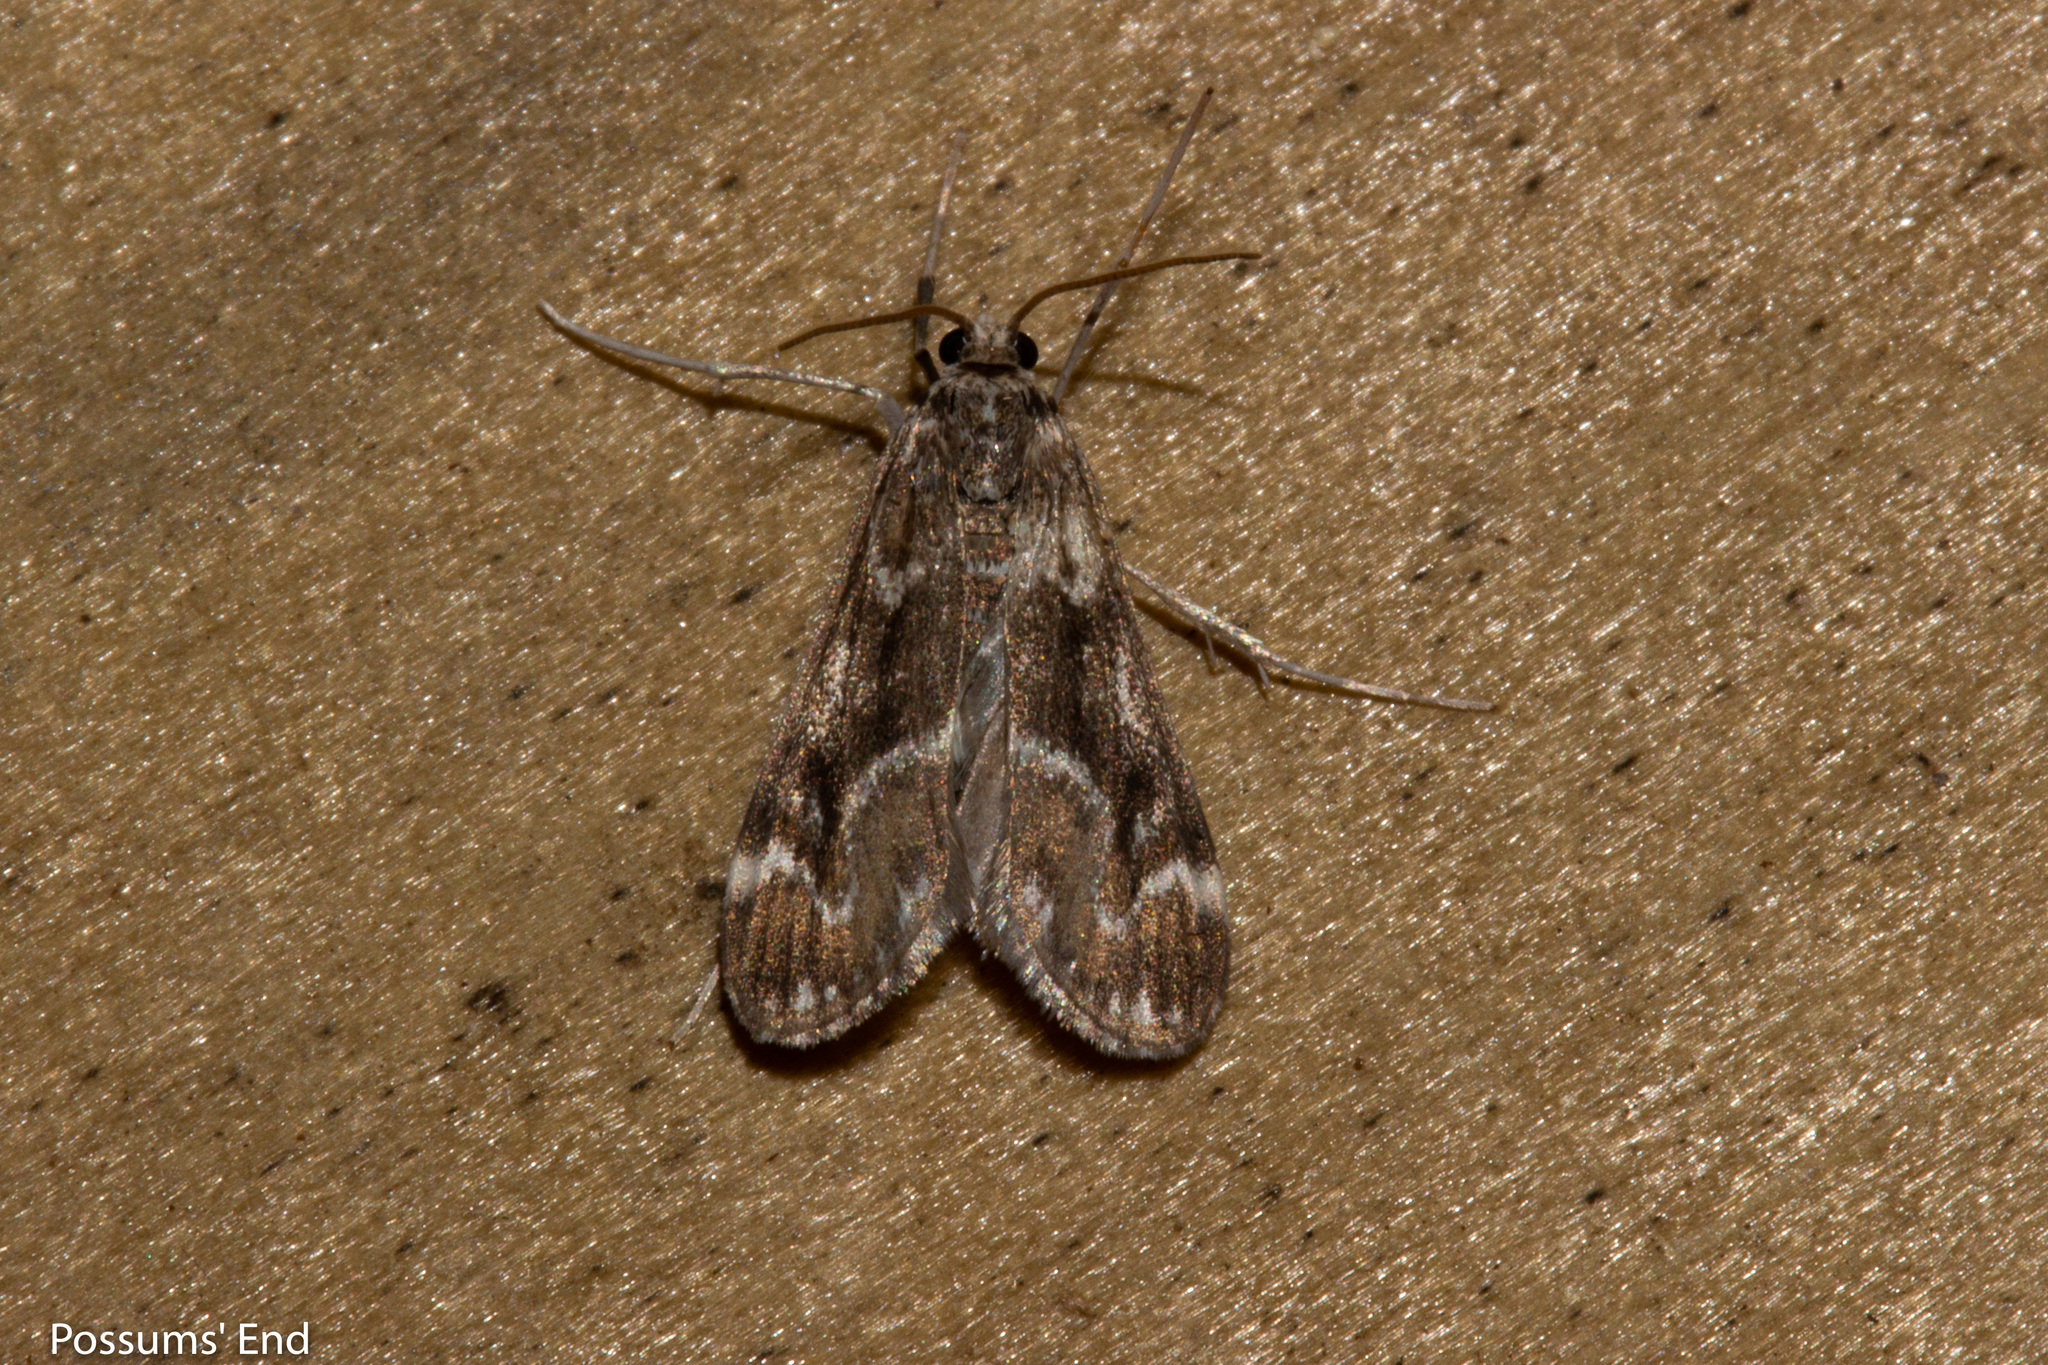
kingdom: Animalia
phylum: Arthropoda
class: Insecta
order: Lepidoptera
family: Crambidae
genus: Hygraula
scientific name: Hygraula nitens
